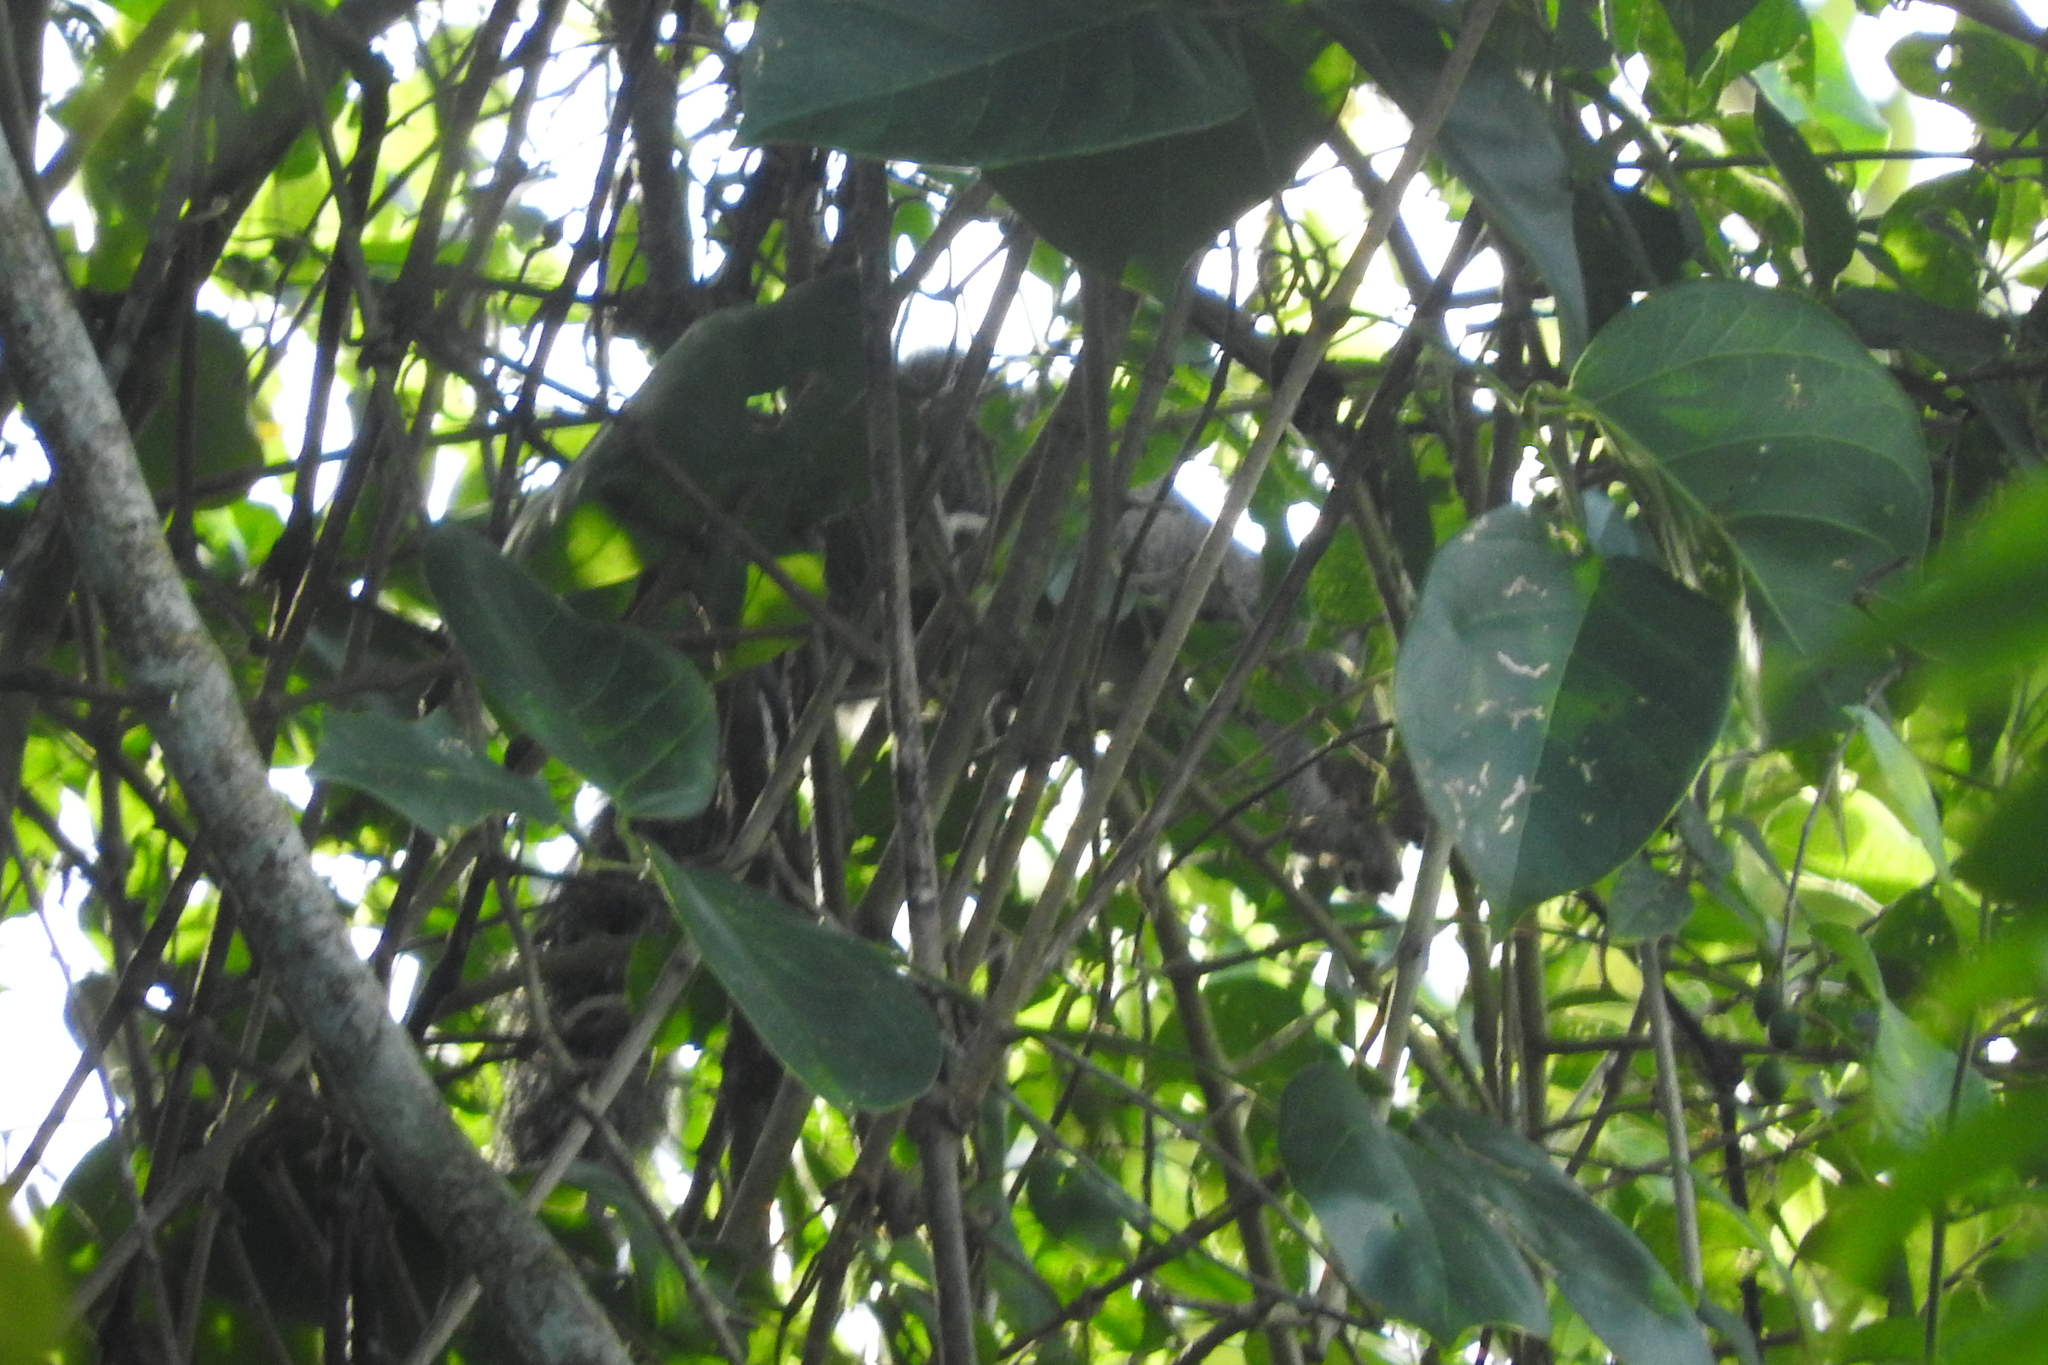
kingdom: Animalia
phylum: Chordata
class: Mammalia
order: Rodentia
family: Sciuridae
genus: Sciurus
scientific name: Sciurus yucatanensis
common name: Yucatan squirrel
